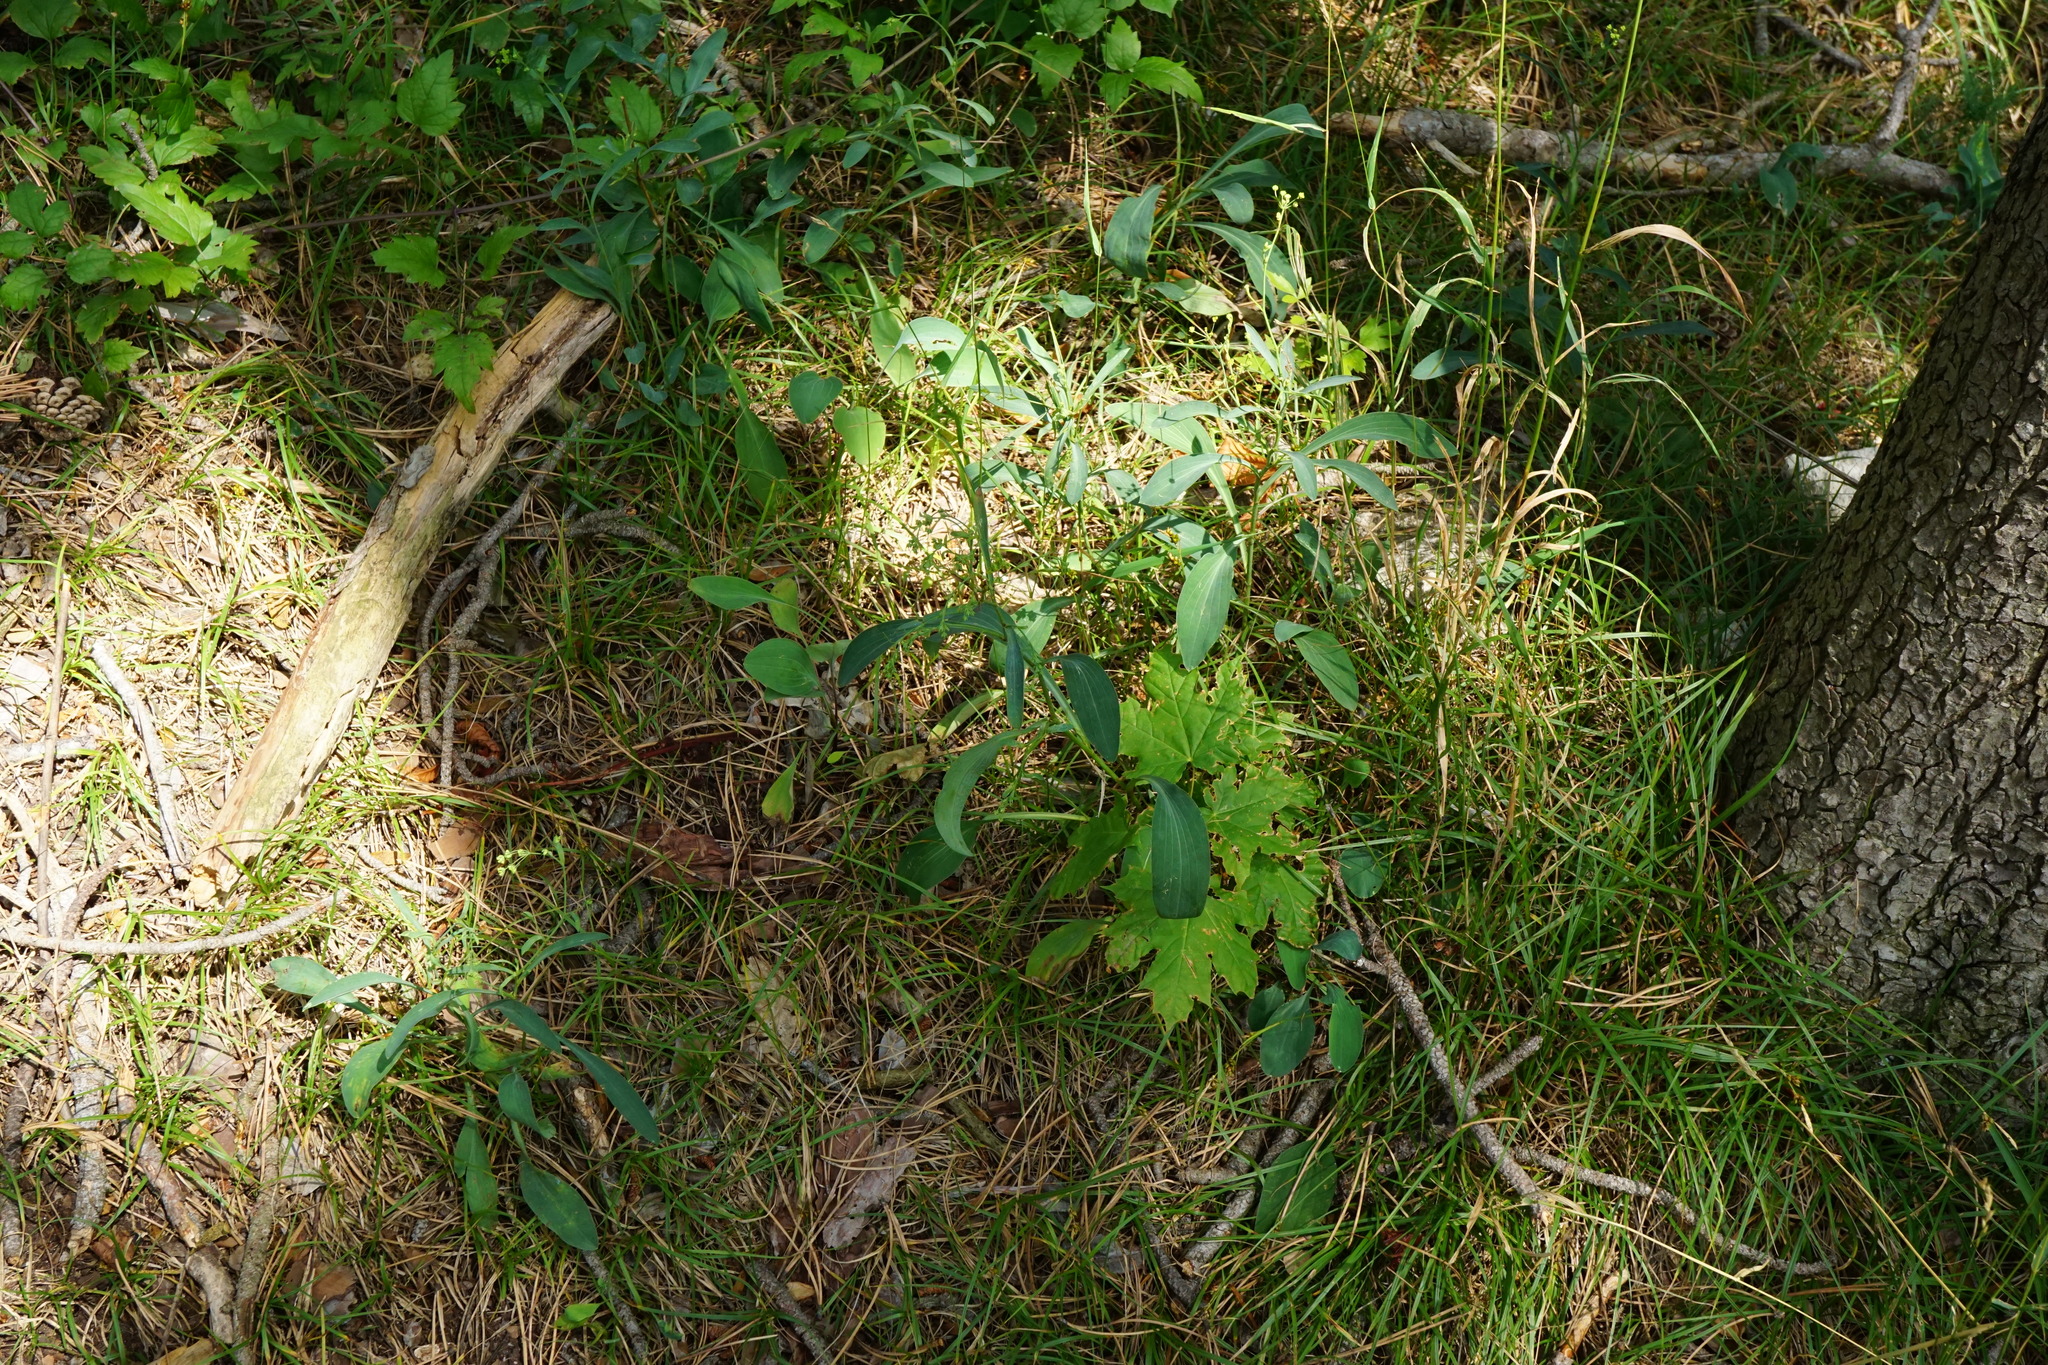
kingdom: Plantae
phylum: Tracheophyta
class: Magnoliopsida
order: Apiales
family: Apiaceae
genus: Bupleurum
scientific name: Bupleurum falcatum
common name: Sickle-leaved hare's-ear
